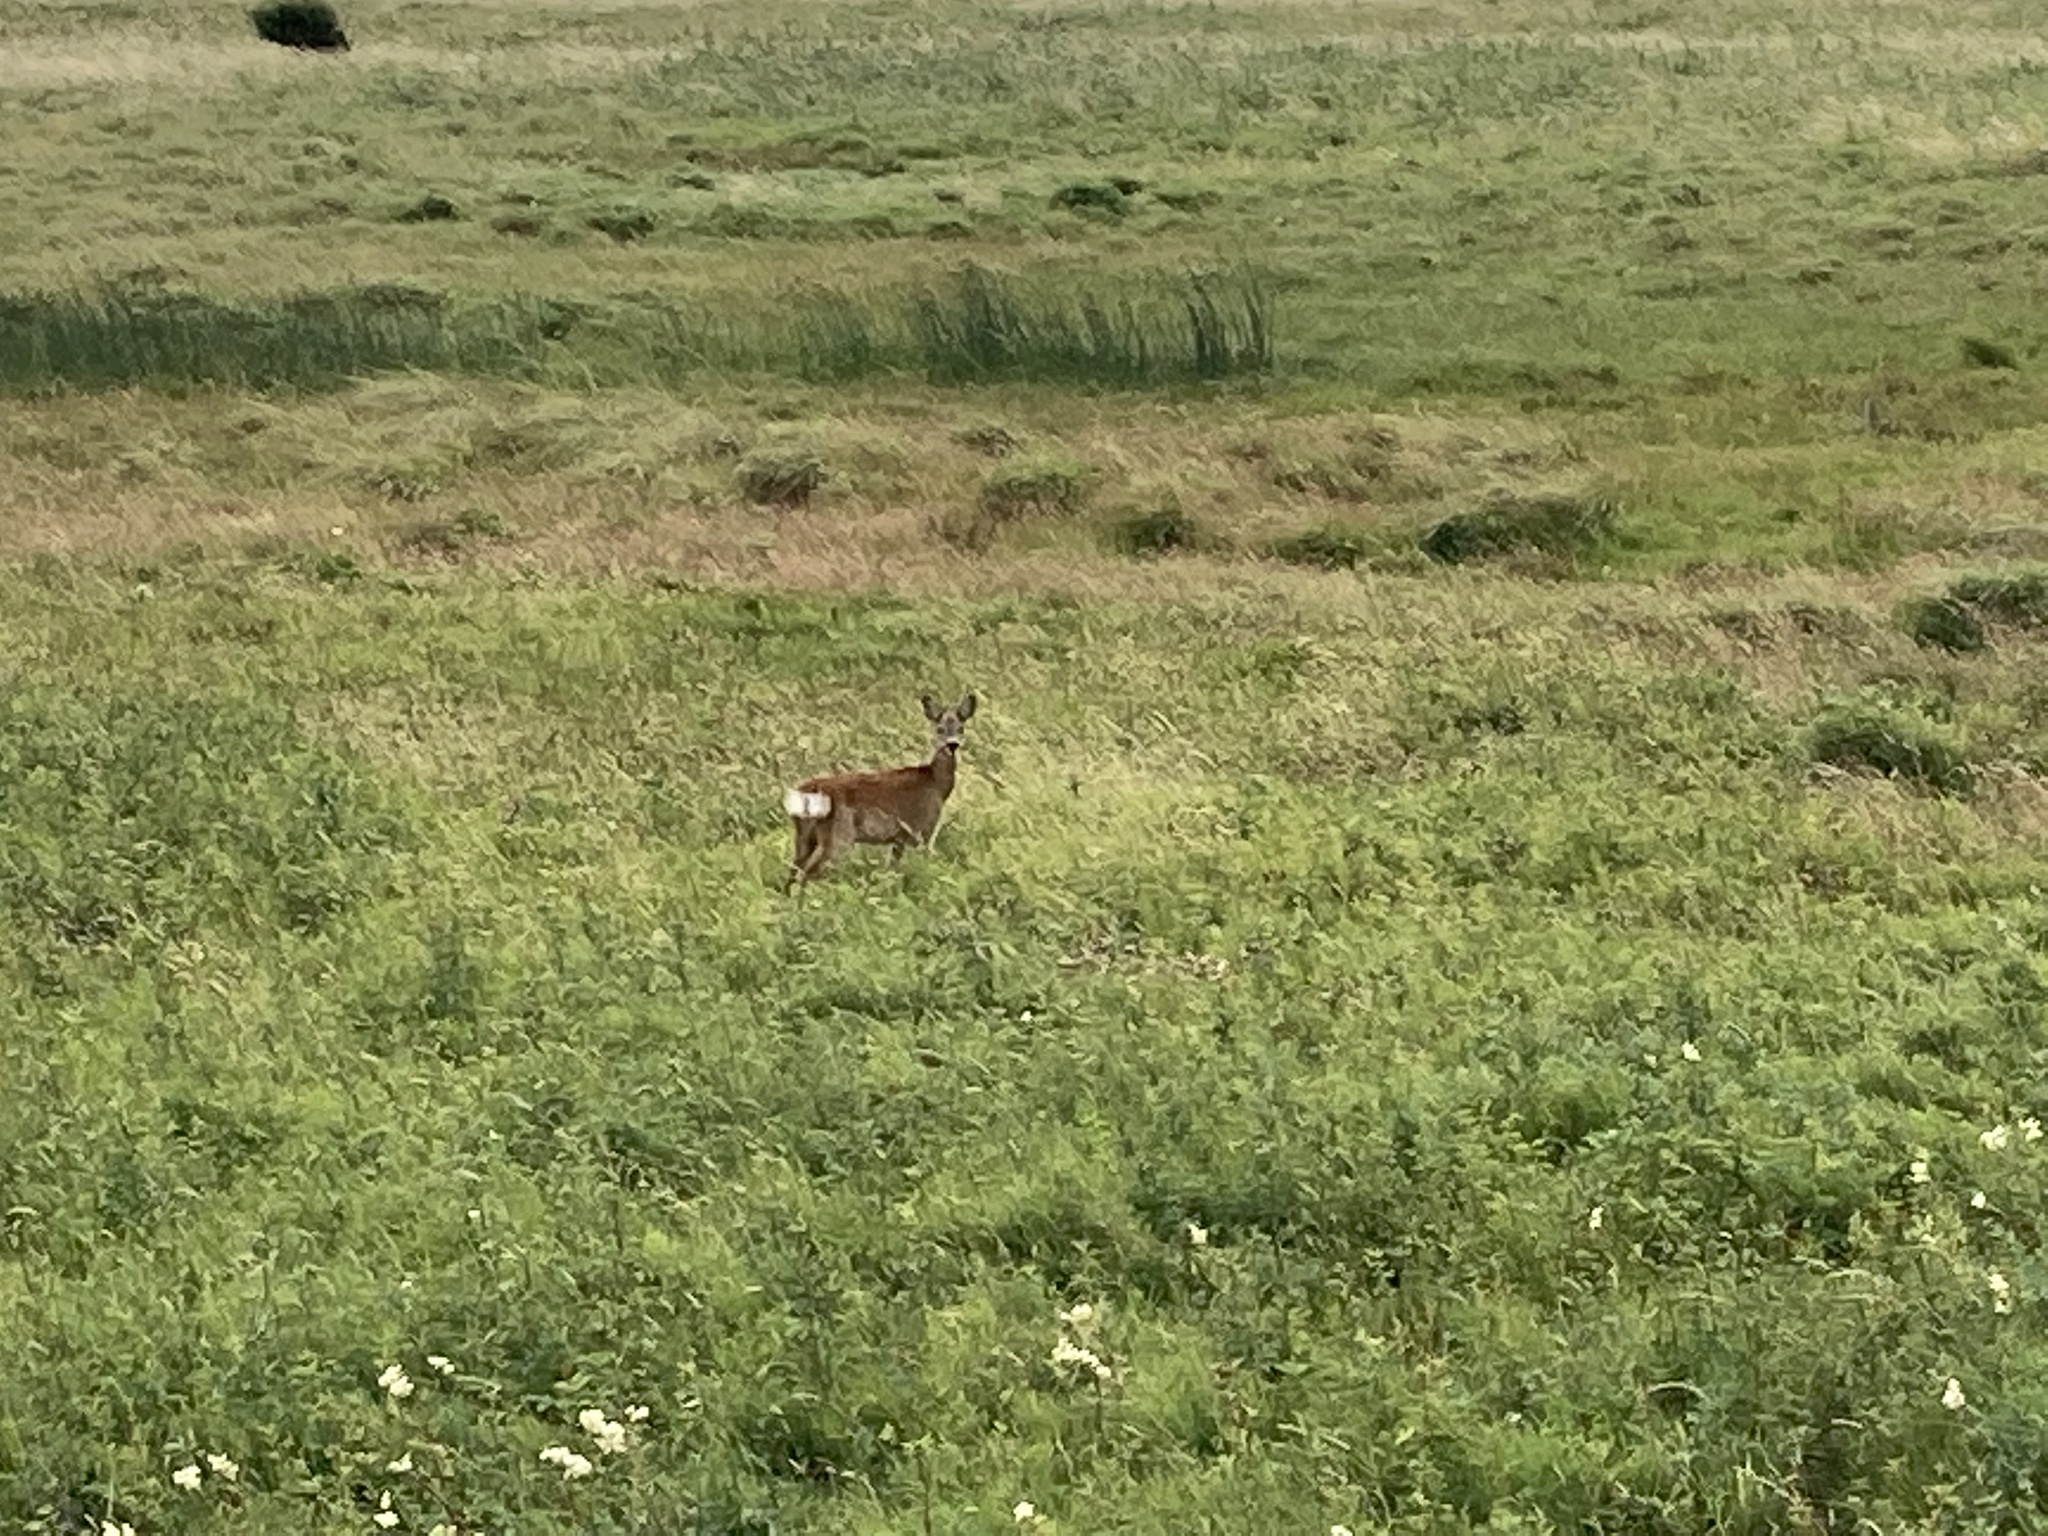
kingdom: Animalia
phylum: Chordata
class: Mammalia
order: Artiodactyla
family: Cervidae
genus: Capreolus
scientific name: Capreolus capreolus
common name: Western roe deer
